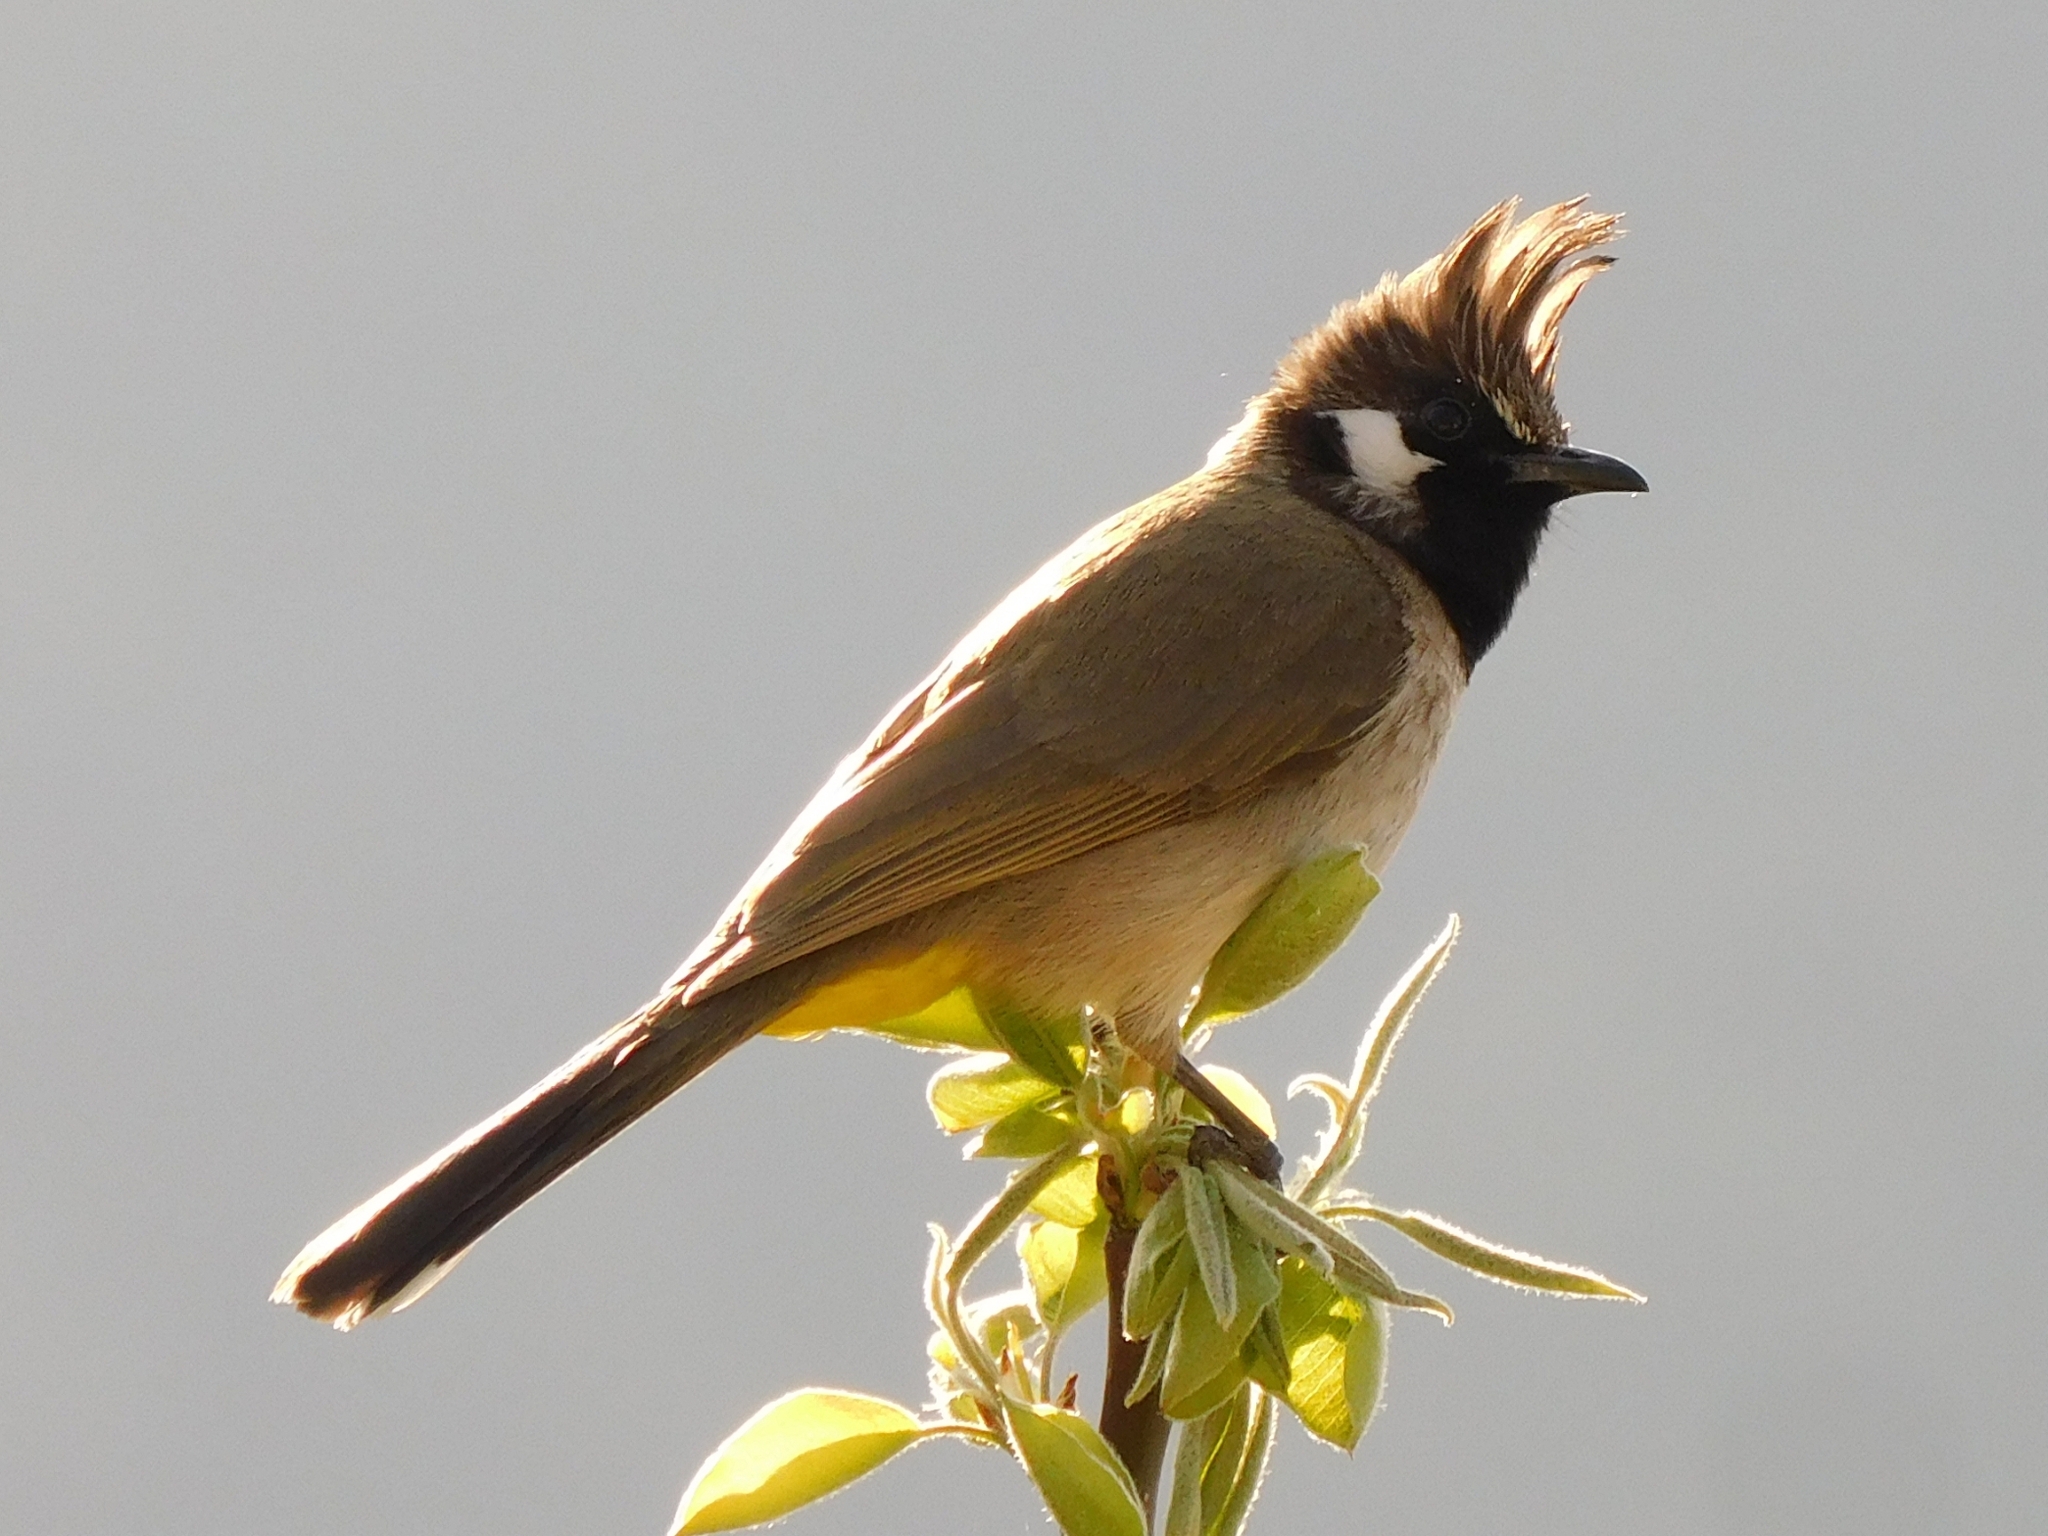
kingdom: Animalia
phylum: Chordata
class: Aves
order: Passeriformes
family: Pycnonotidae
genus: Pycnonotus
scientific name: Pycnonotus leucogenys
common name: Himalayan bulbul
